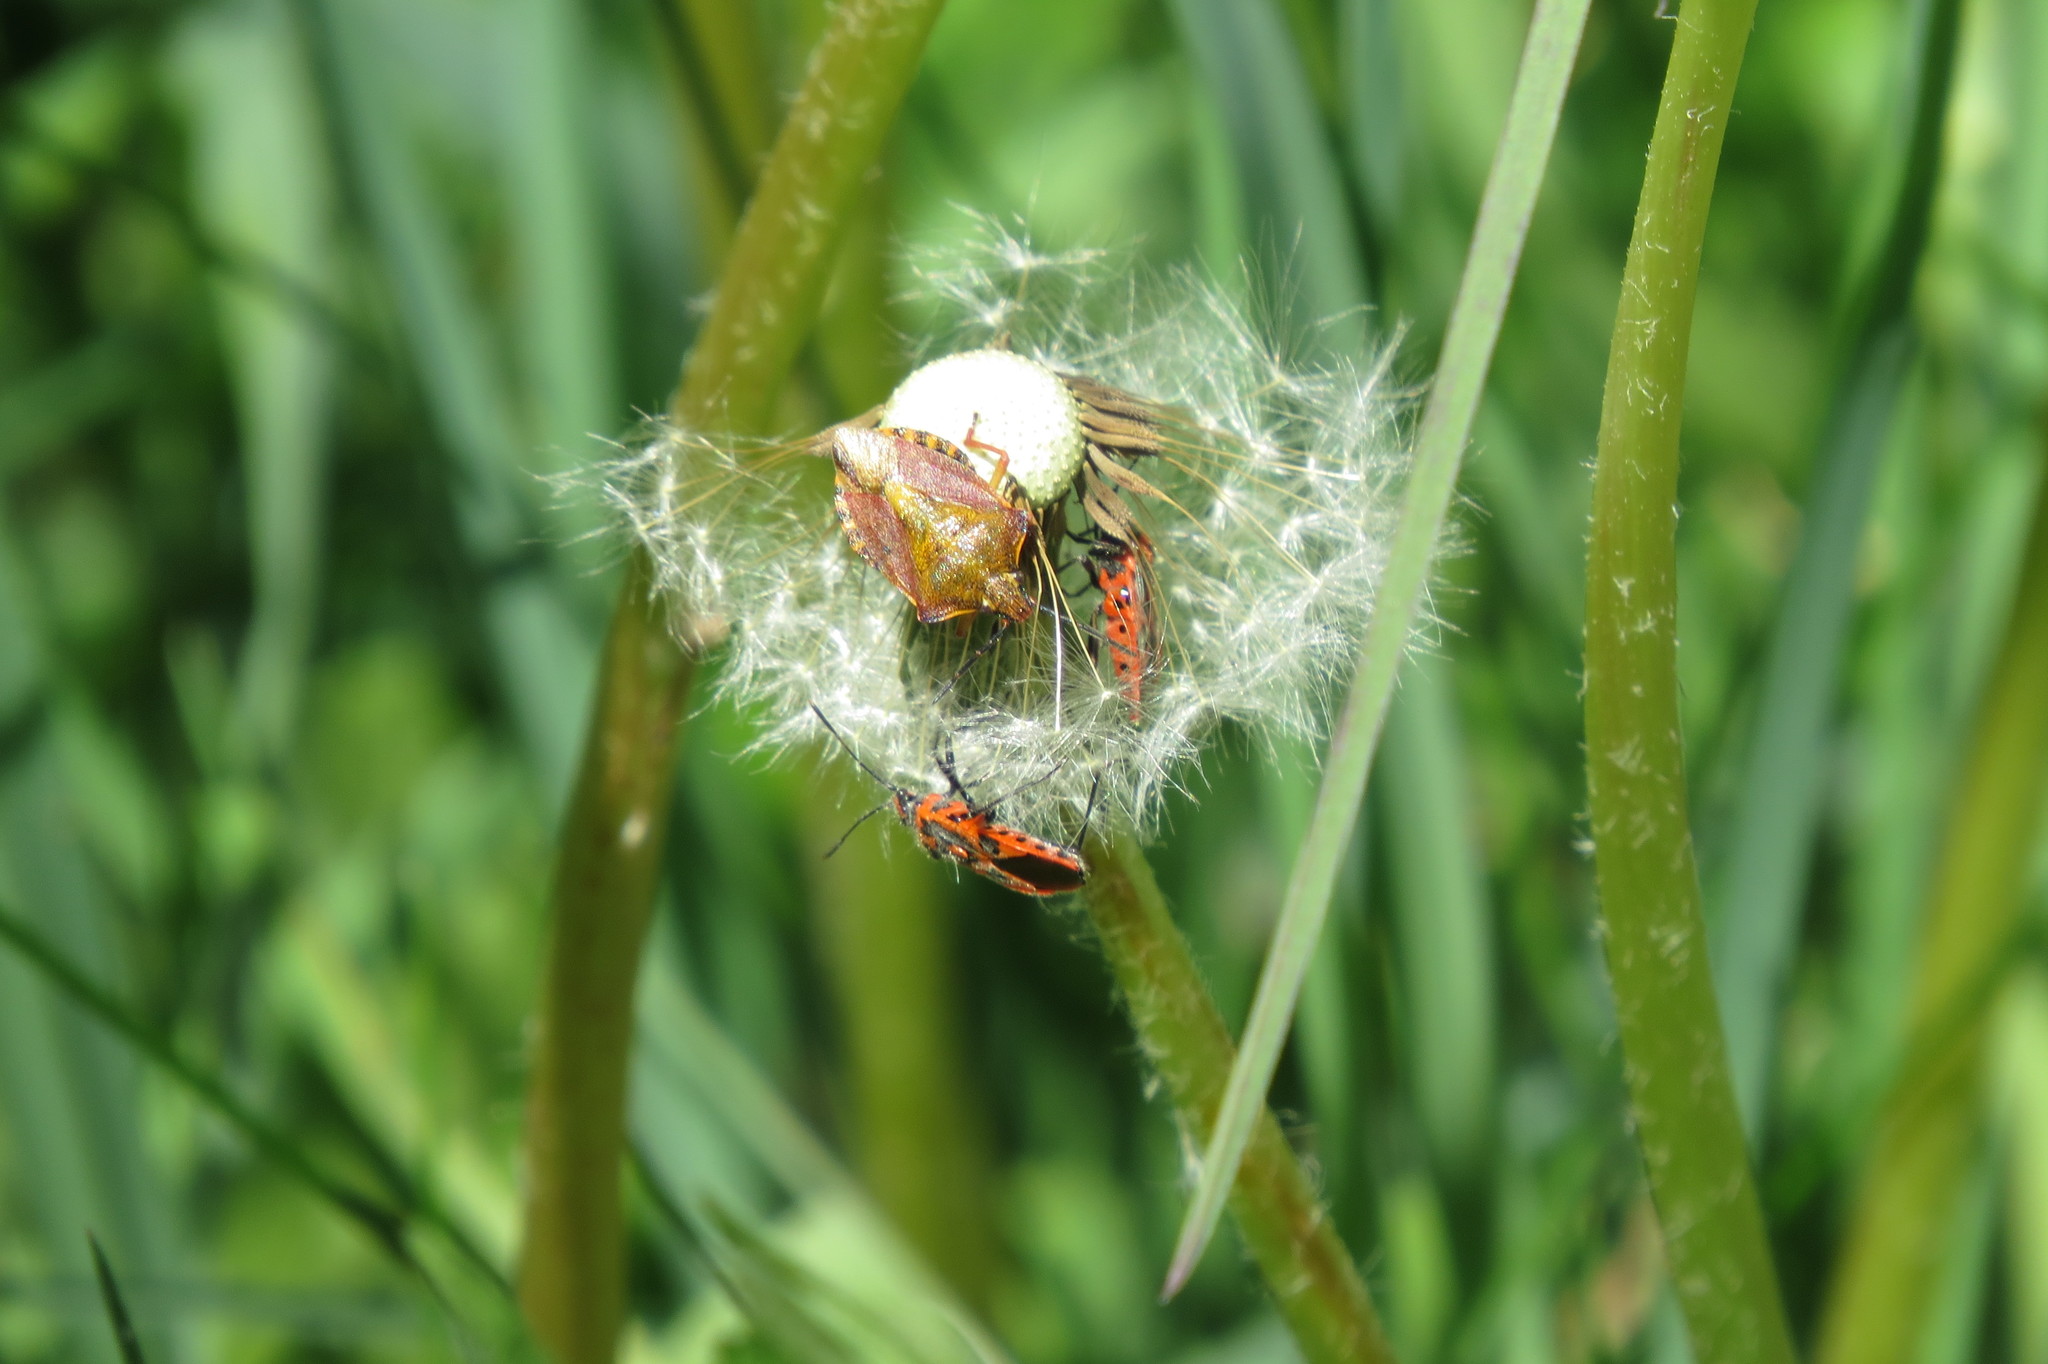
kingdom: Animalia
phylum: Arthropoda
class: Insecta
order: Hemiptera
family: Pentatomidae
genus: Carpocoris
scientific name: Carpocoris purpureipennis
